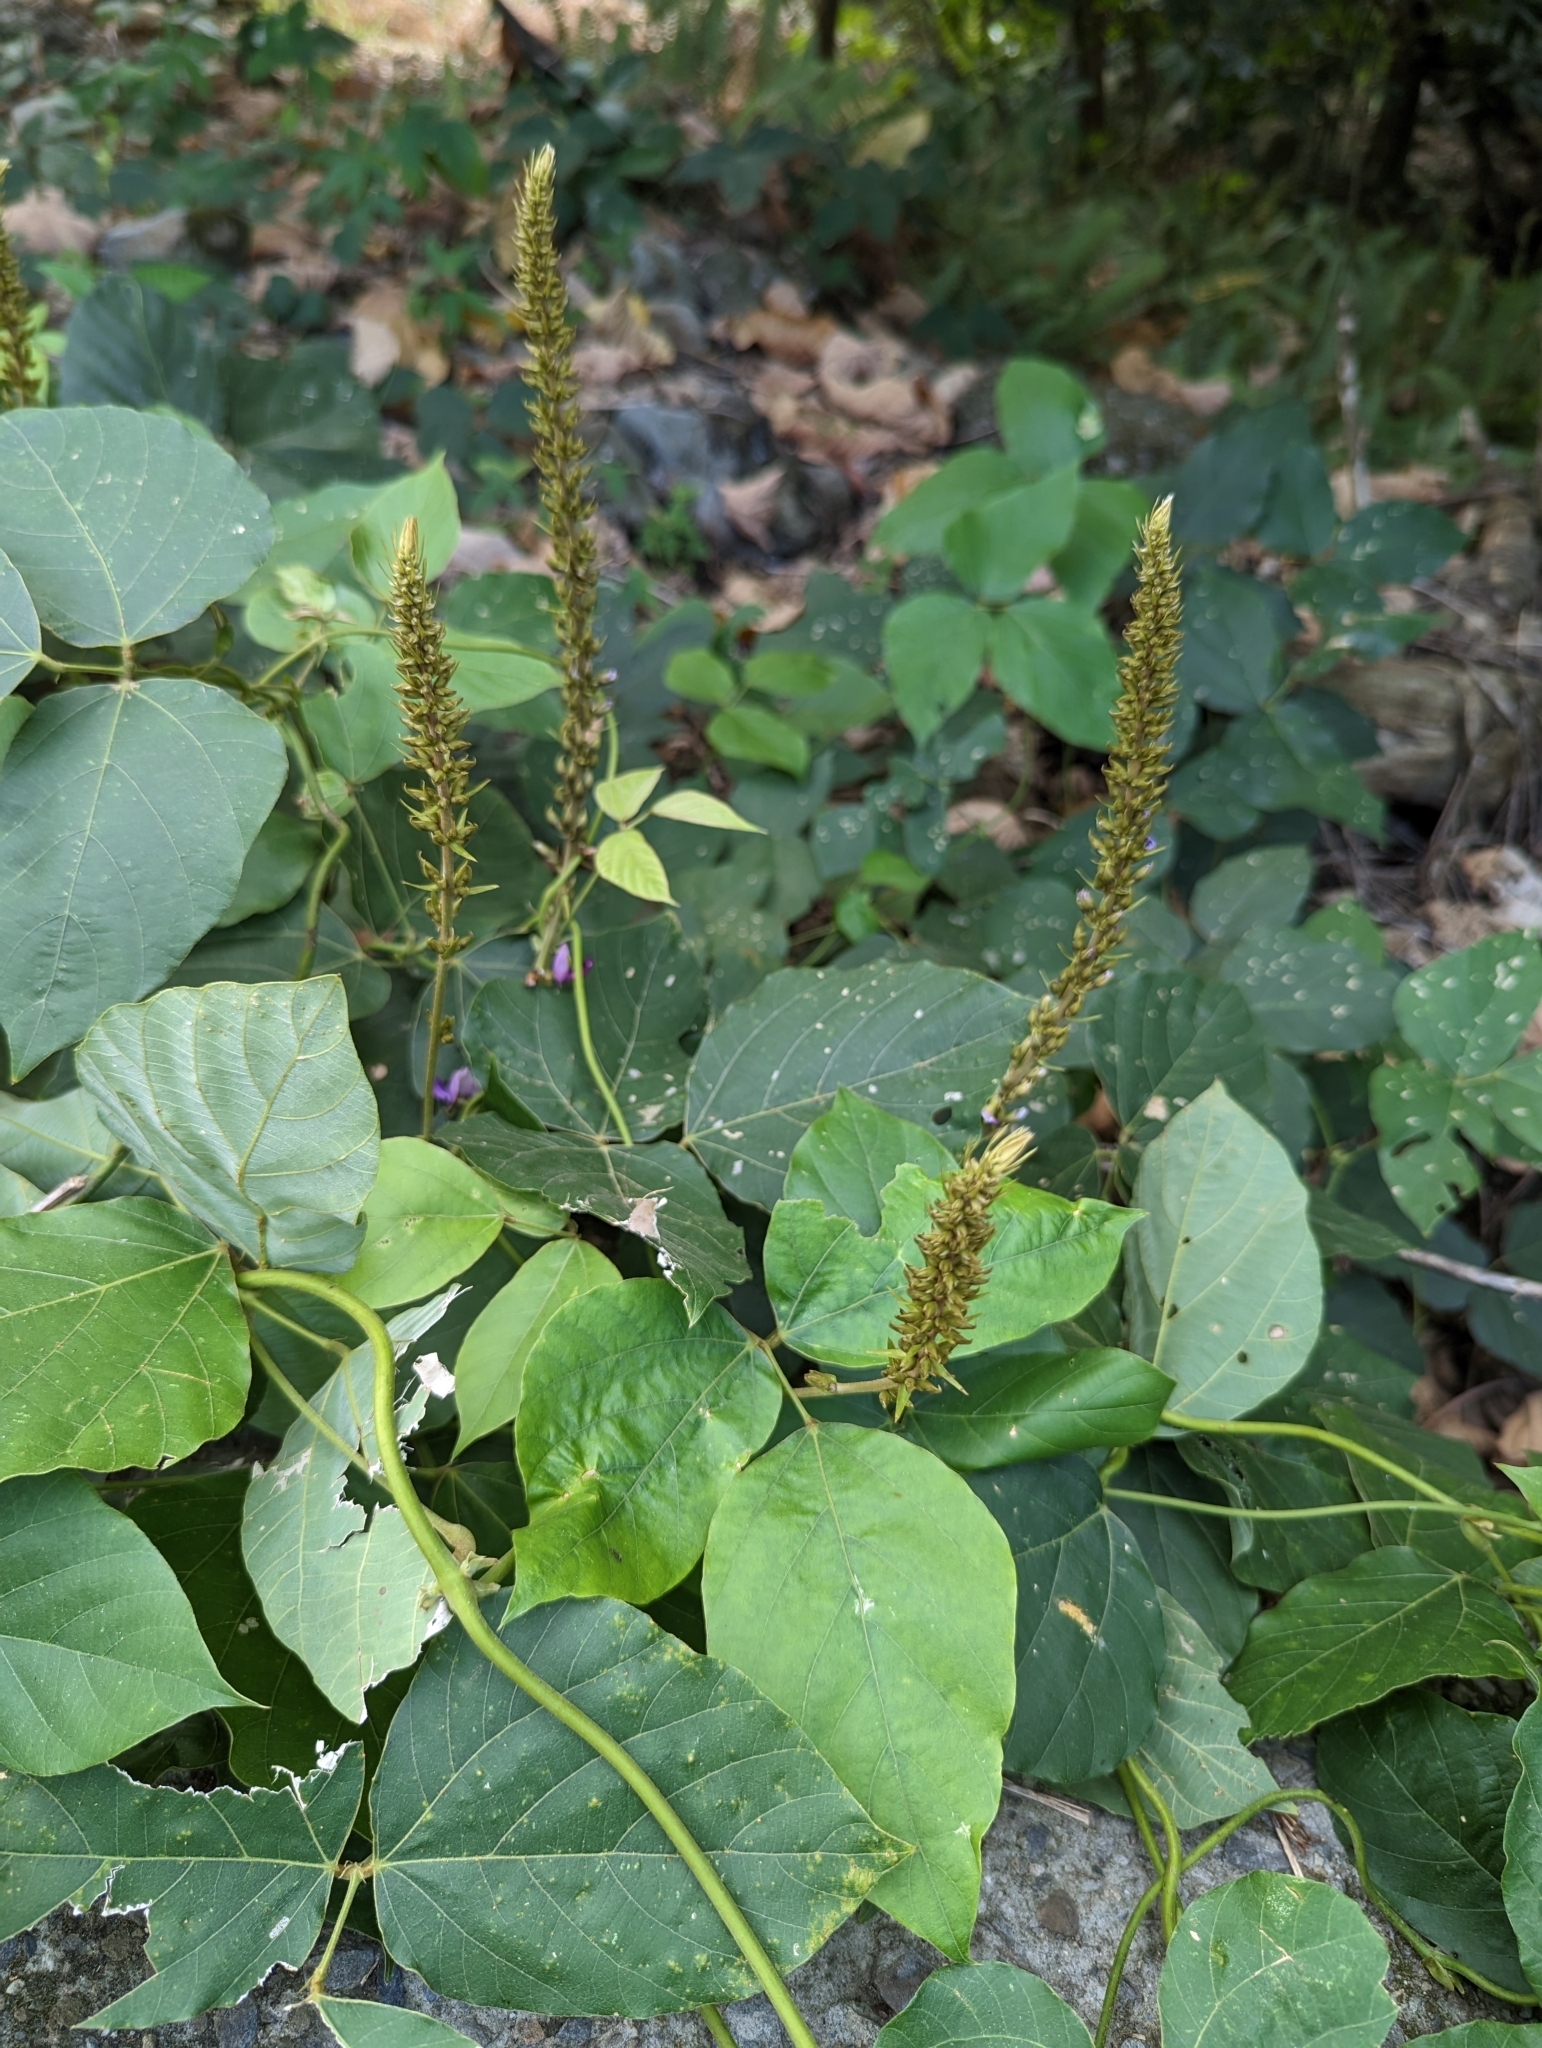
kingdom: Plantae
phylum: Tracheophyta
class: Magnoliopsida
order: Fabales
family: Fabaceae
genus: Pueraria
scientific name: Pueraria montana
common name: Kudzu
